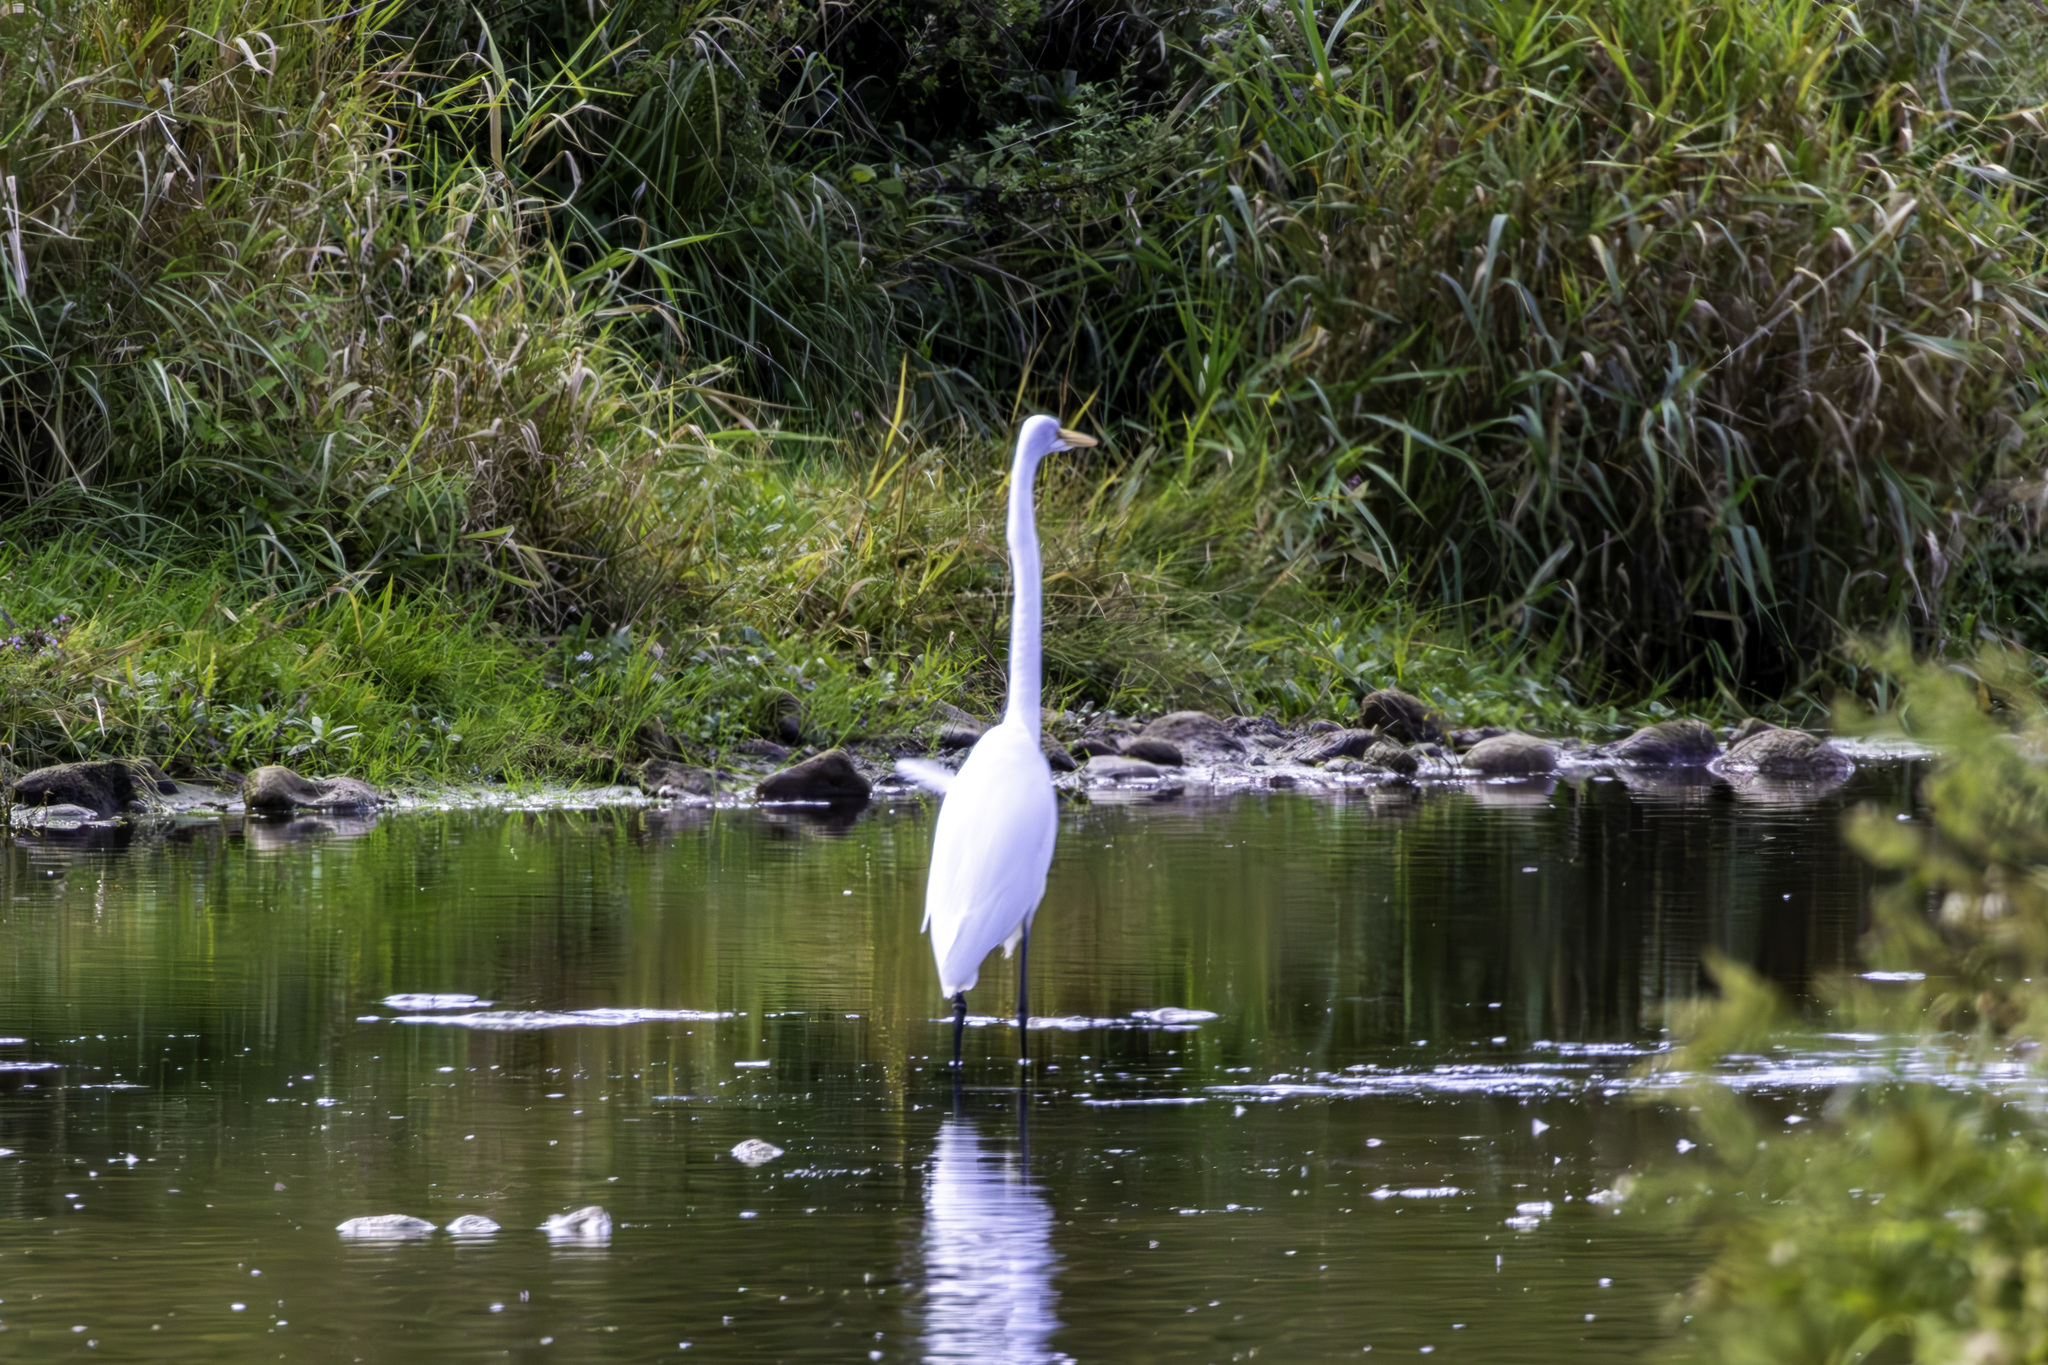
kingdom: Animalia
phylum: Chordata
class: Aves
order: Pelecaniformes
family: Ardeidae
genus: Ardea
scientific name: Ardea alba
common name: Great egret
